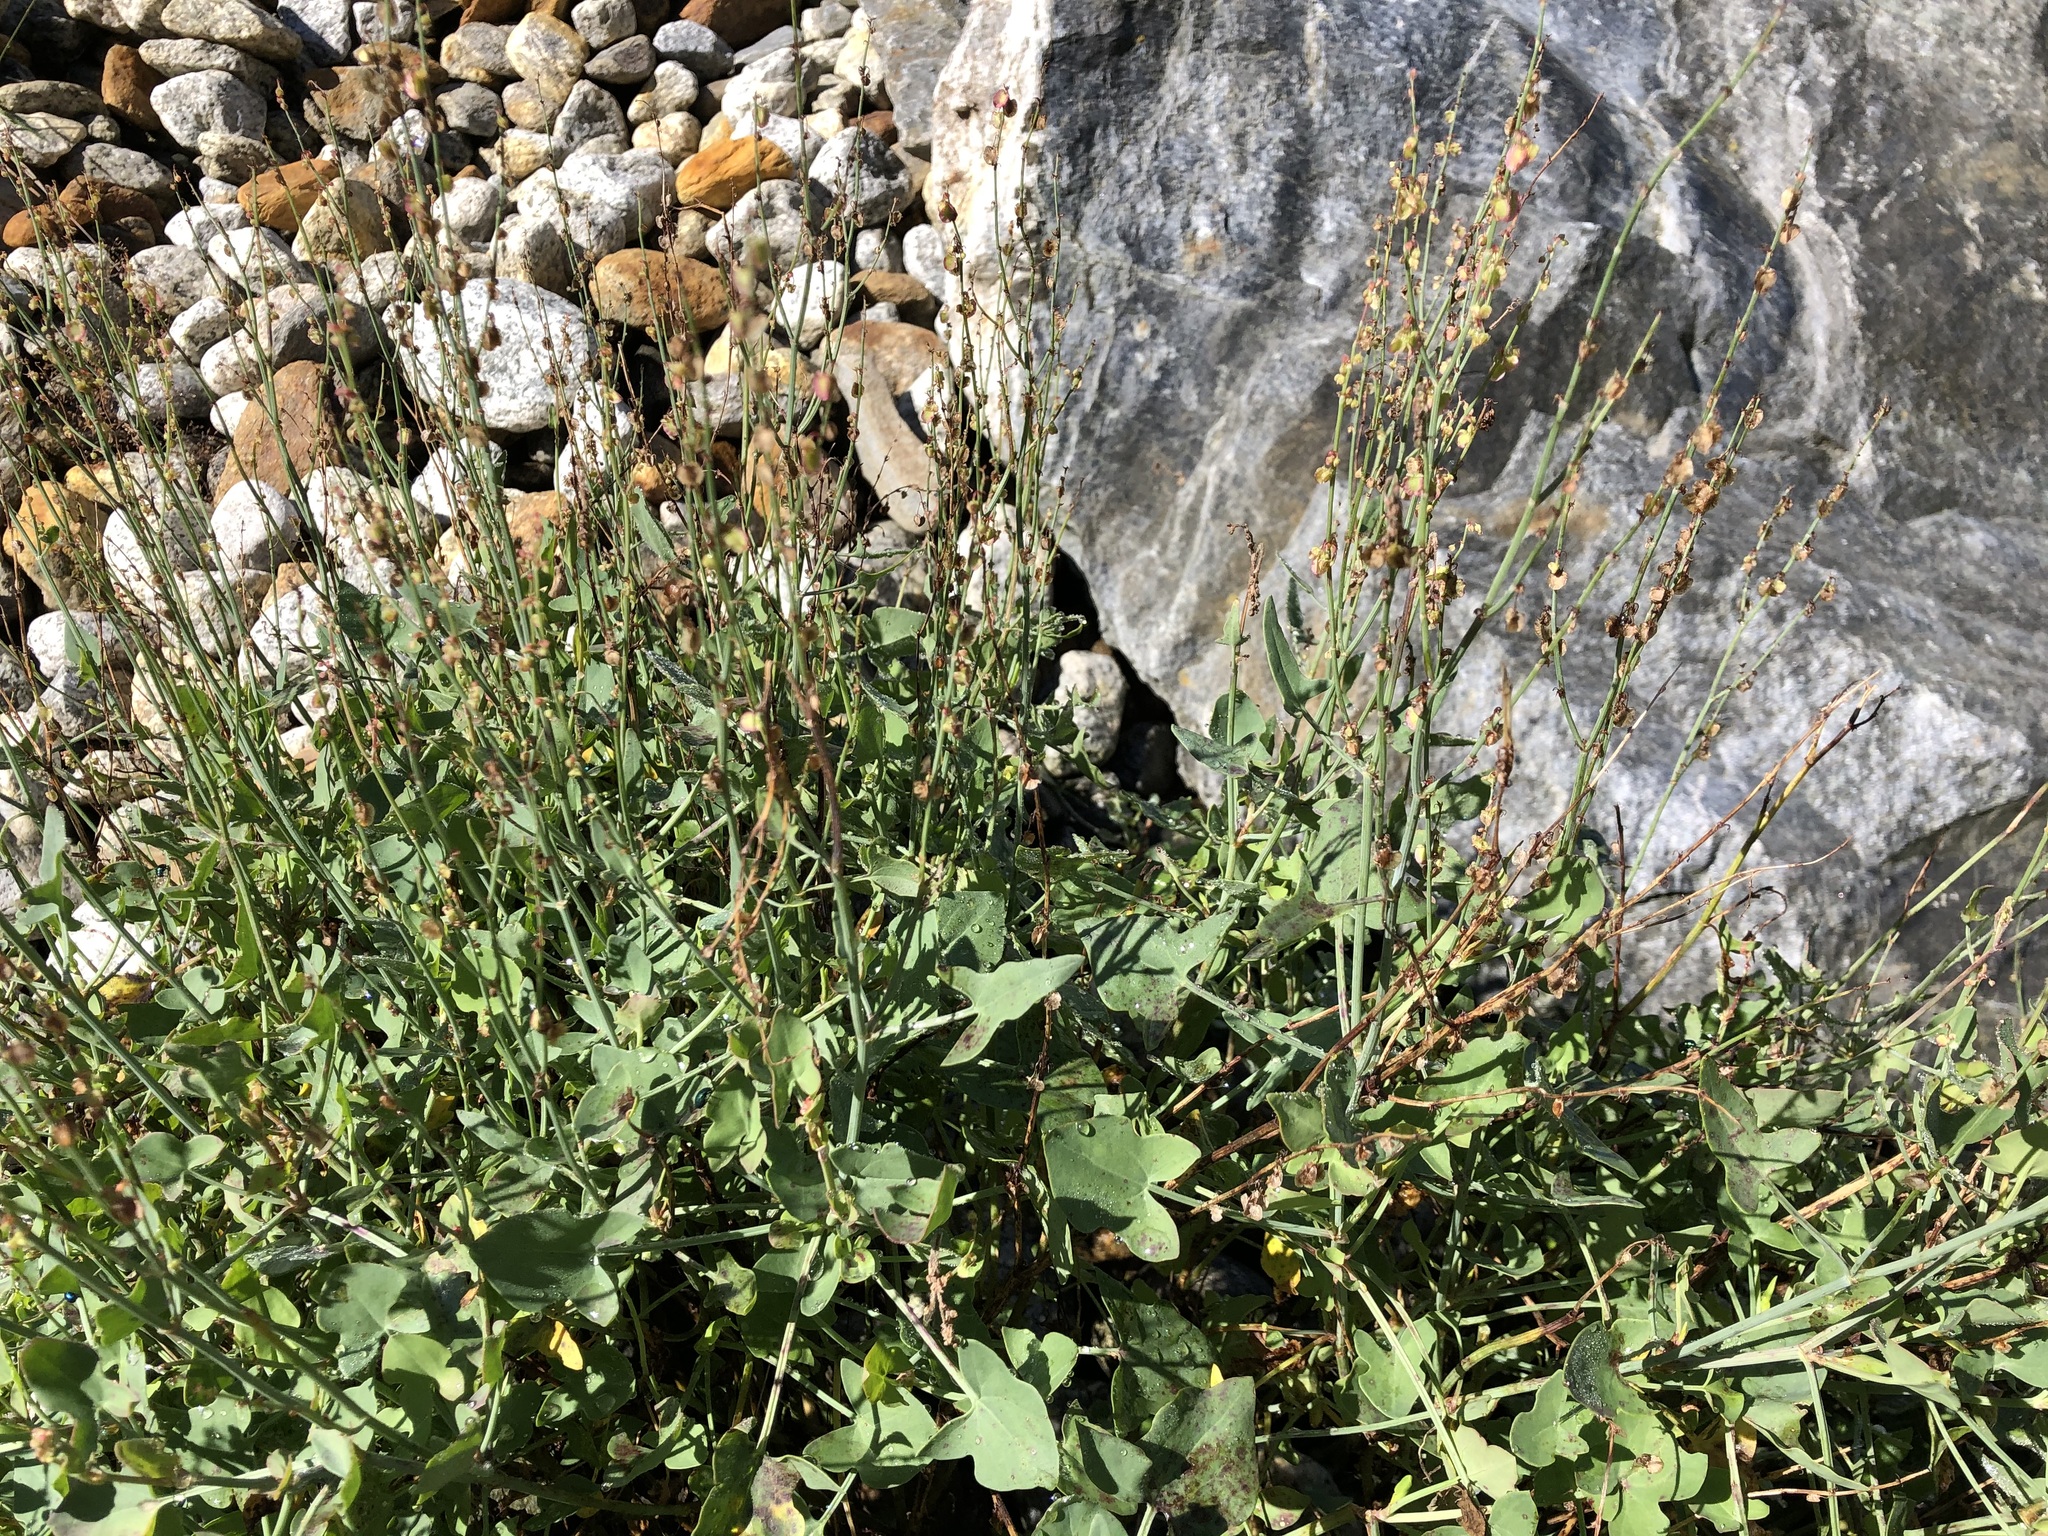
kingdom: Plantae
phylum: Tracheophyta
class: Magnoliopsida
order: Caryophyllales
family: Polygonaceae
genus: Rumex
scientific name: Rumex scutatus
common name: French sorrel
